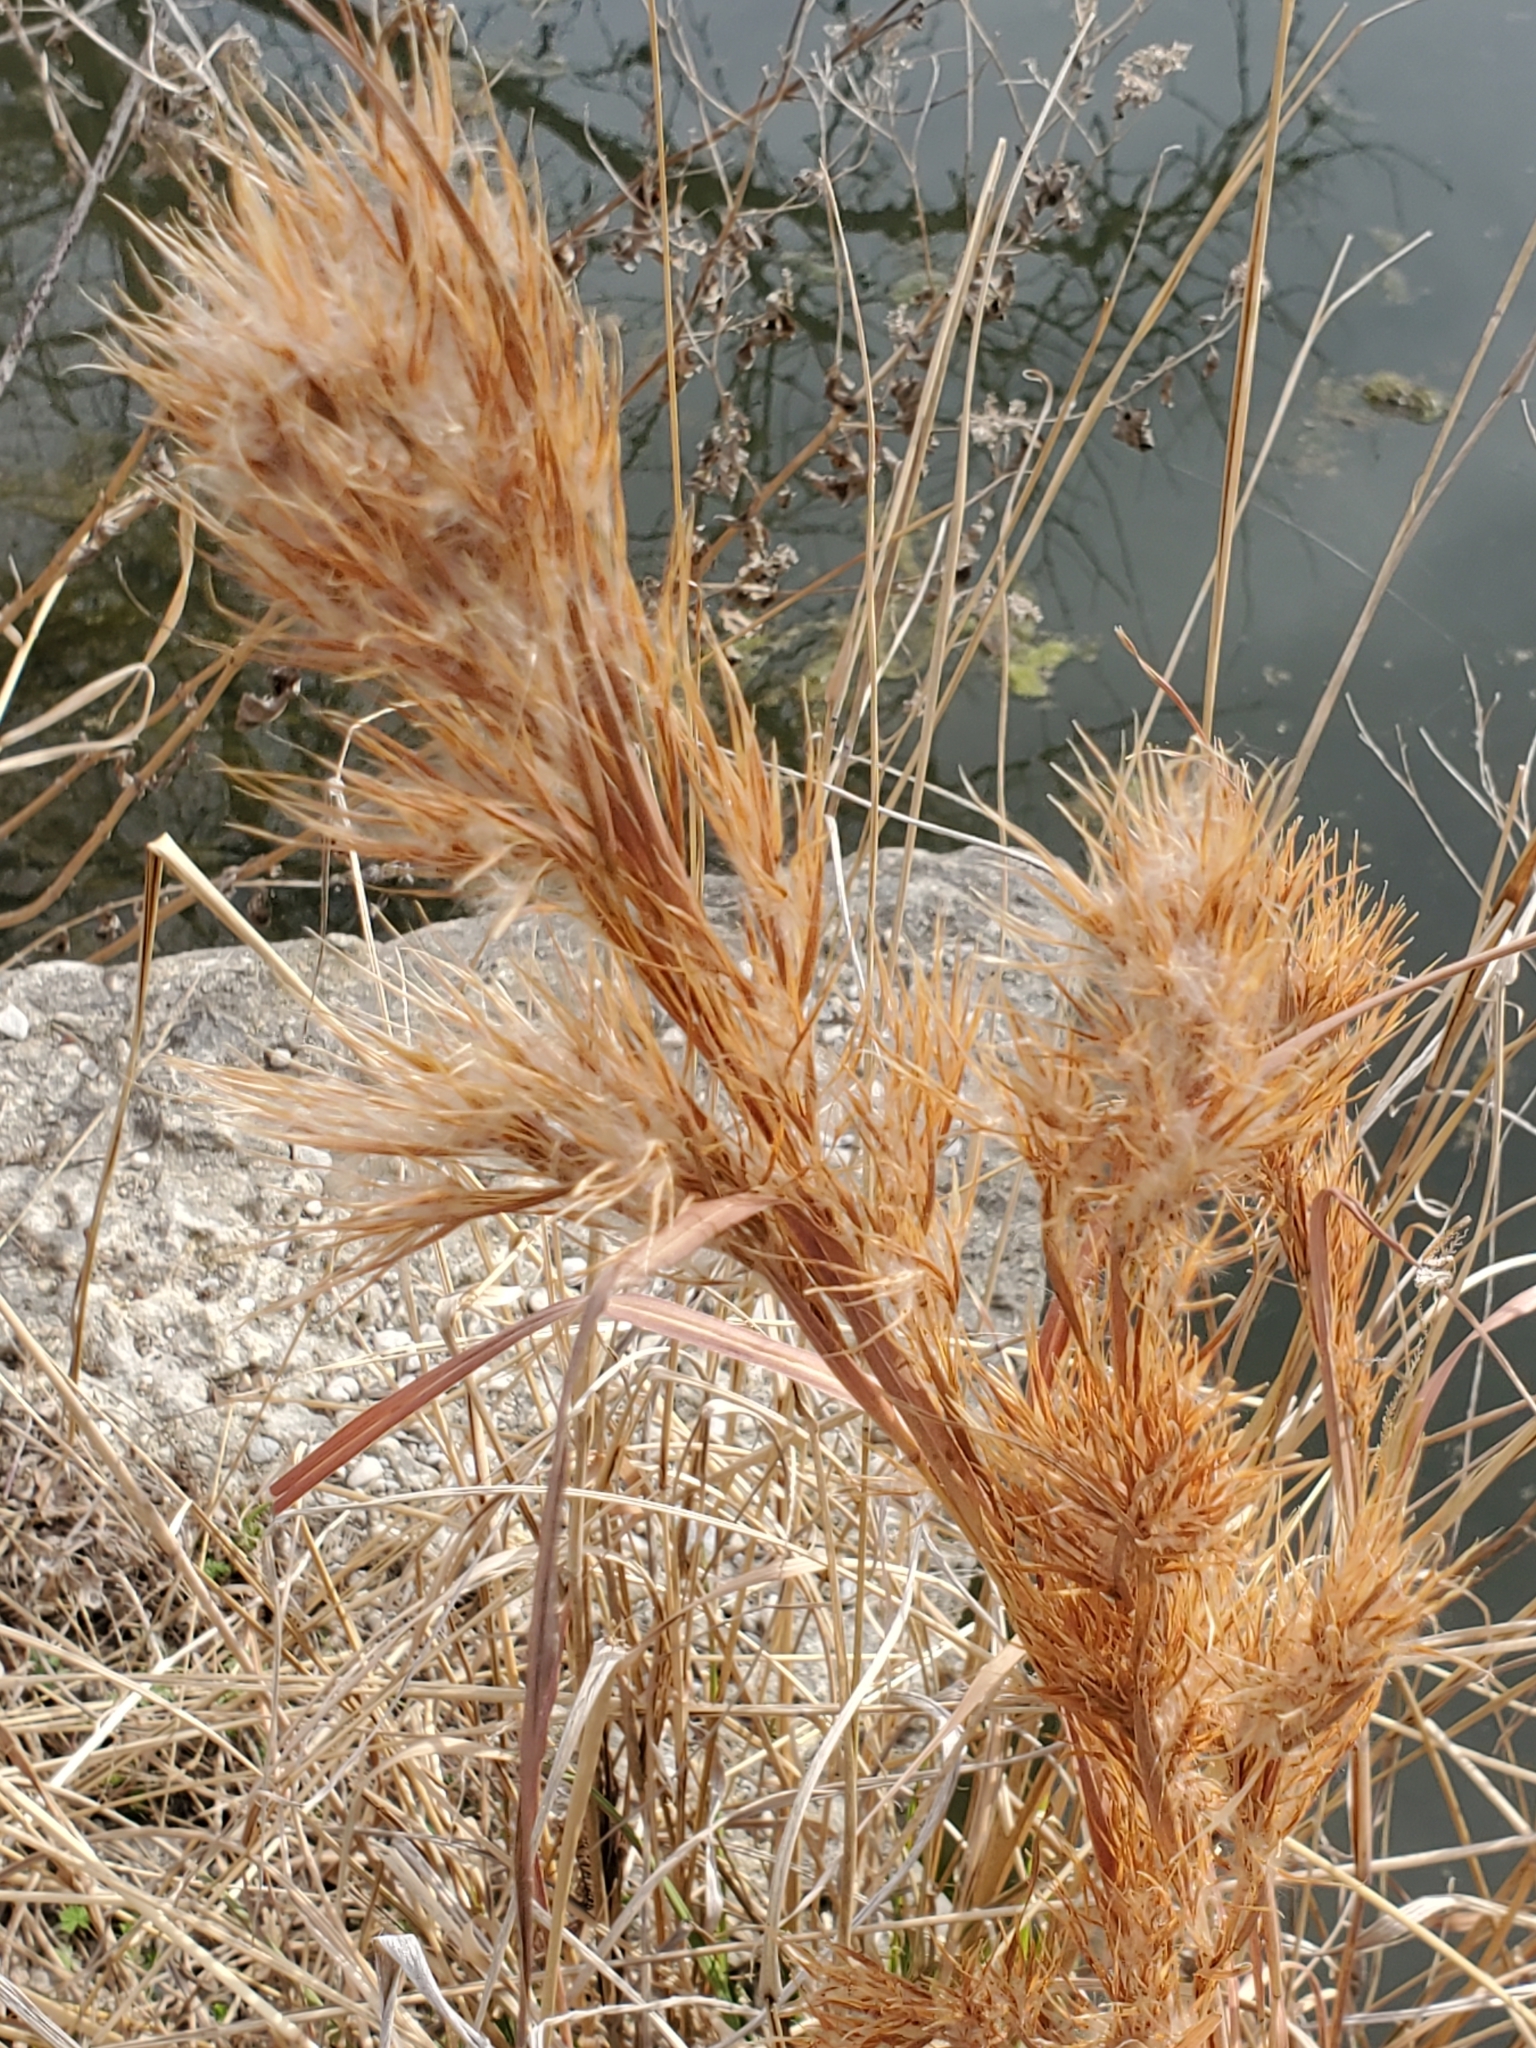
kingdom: Plantae
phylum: Tracheophyta
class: Liliopsida
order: Poales
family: Poaceae
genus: Andropogon
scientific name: Andropogon tenuispatheus
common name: Bushy bluestem
